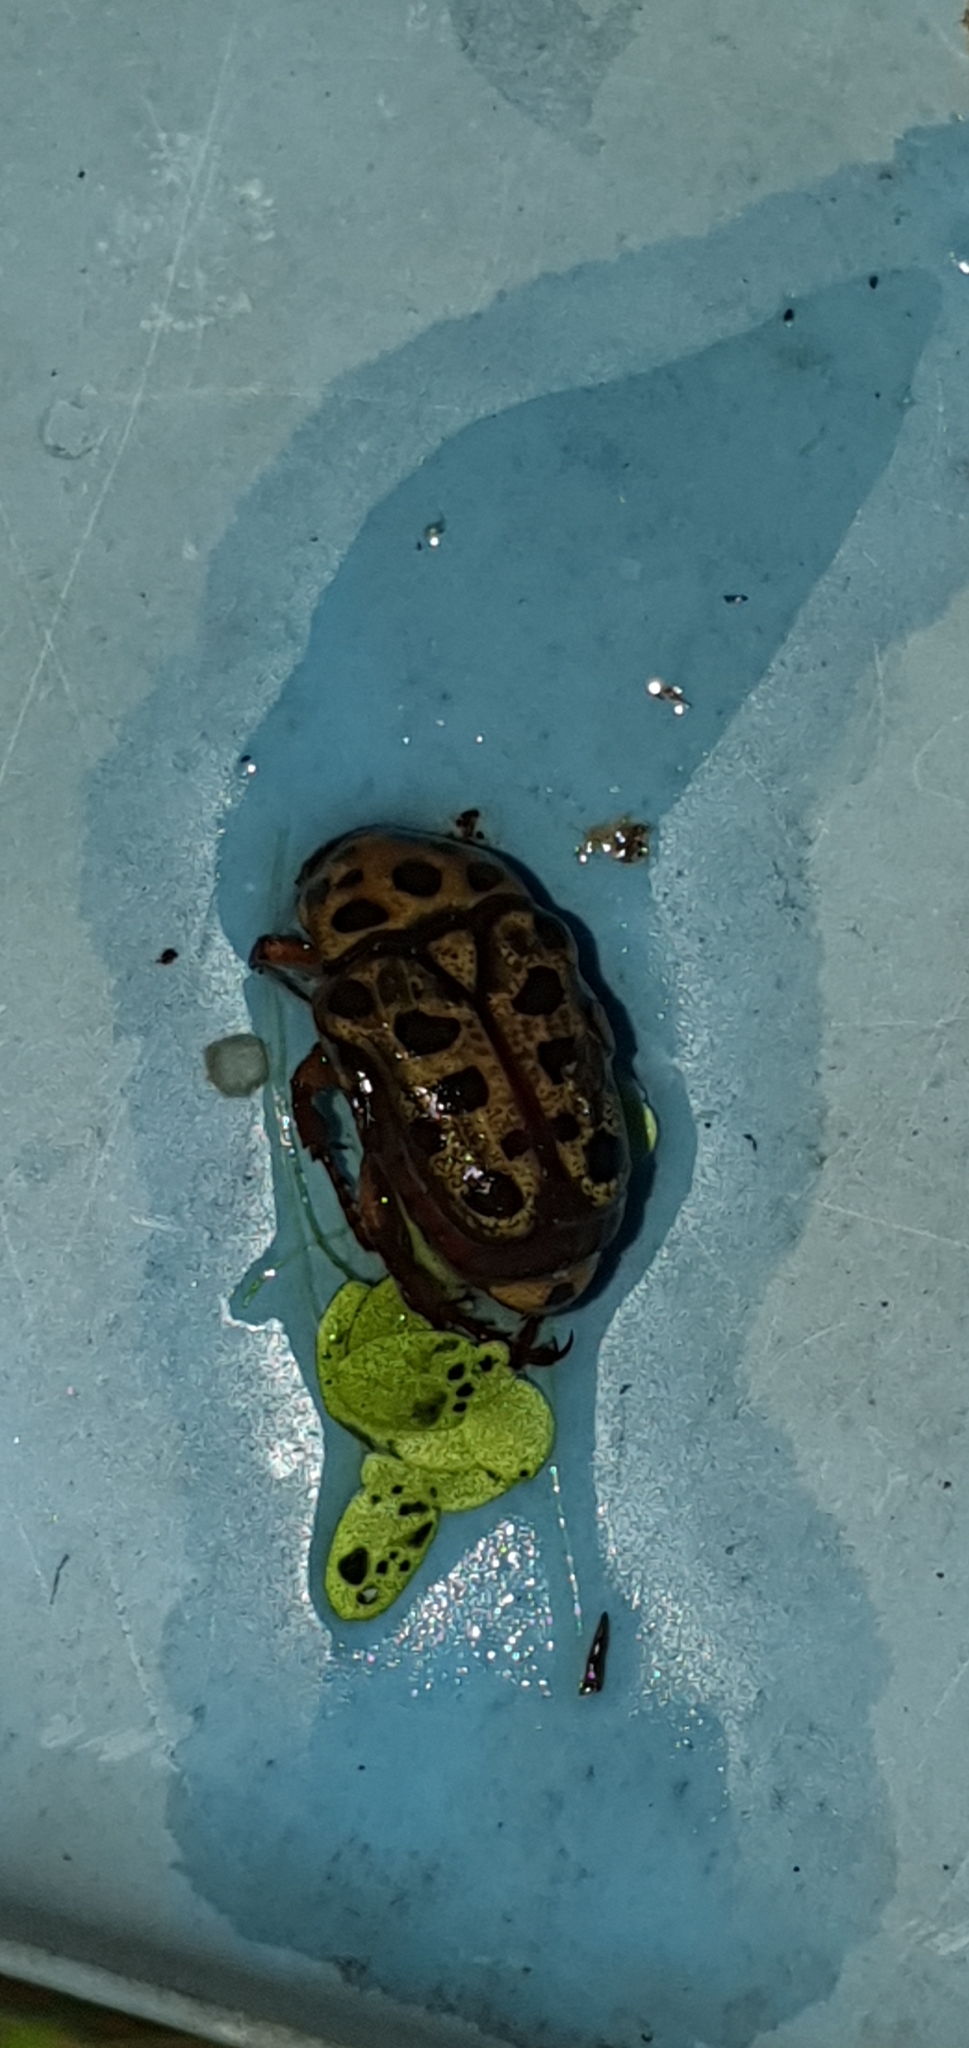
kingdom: Animalia
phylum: Arthropoda
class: Insecta
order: Coleoptera
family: Scarabaeidae
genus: Neorrhina
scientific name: Neorrhina punctatum
